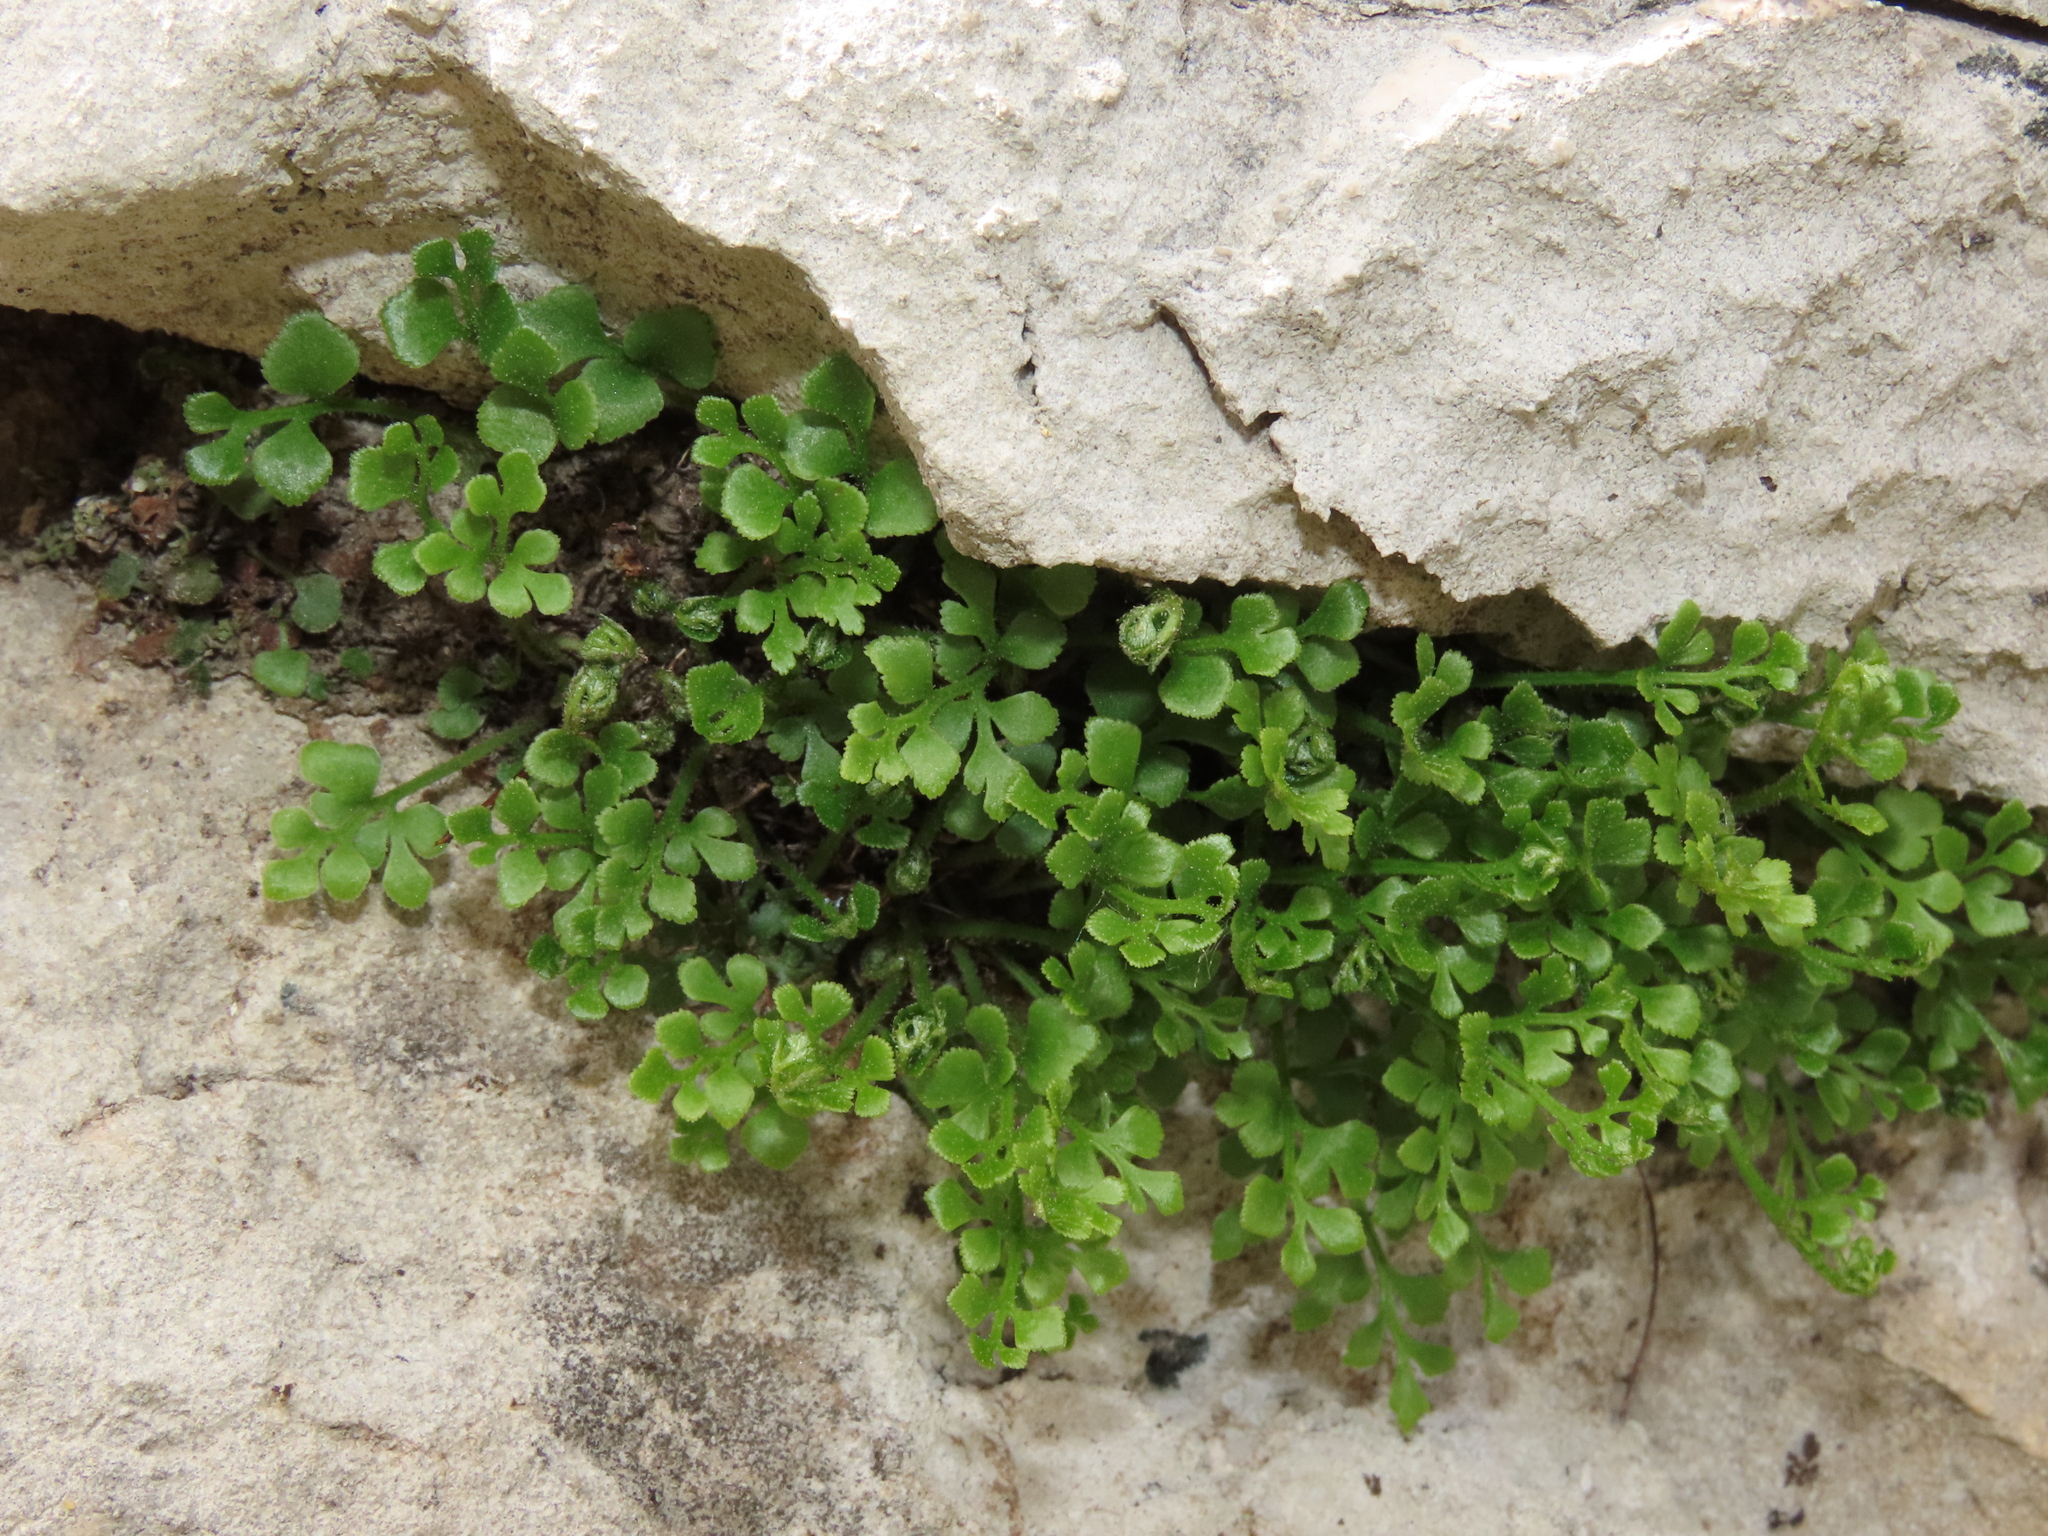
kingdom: Plantae
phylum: Tracheophyta
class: Polypodiopsida
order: Polypodiales
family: Aspleniaceae
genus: Asplenium
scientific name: Asplenium ruta-muraria
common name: Wall-rue
